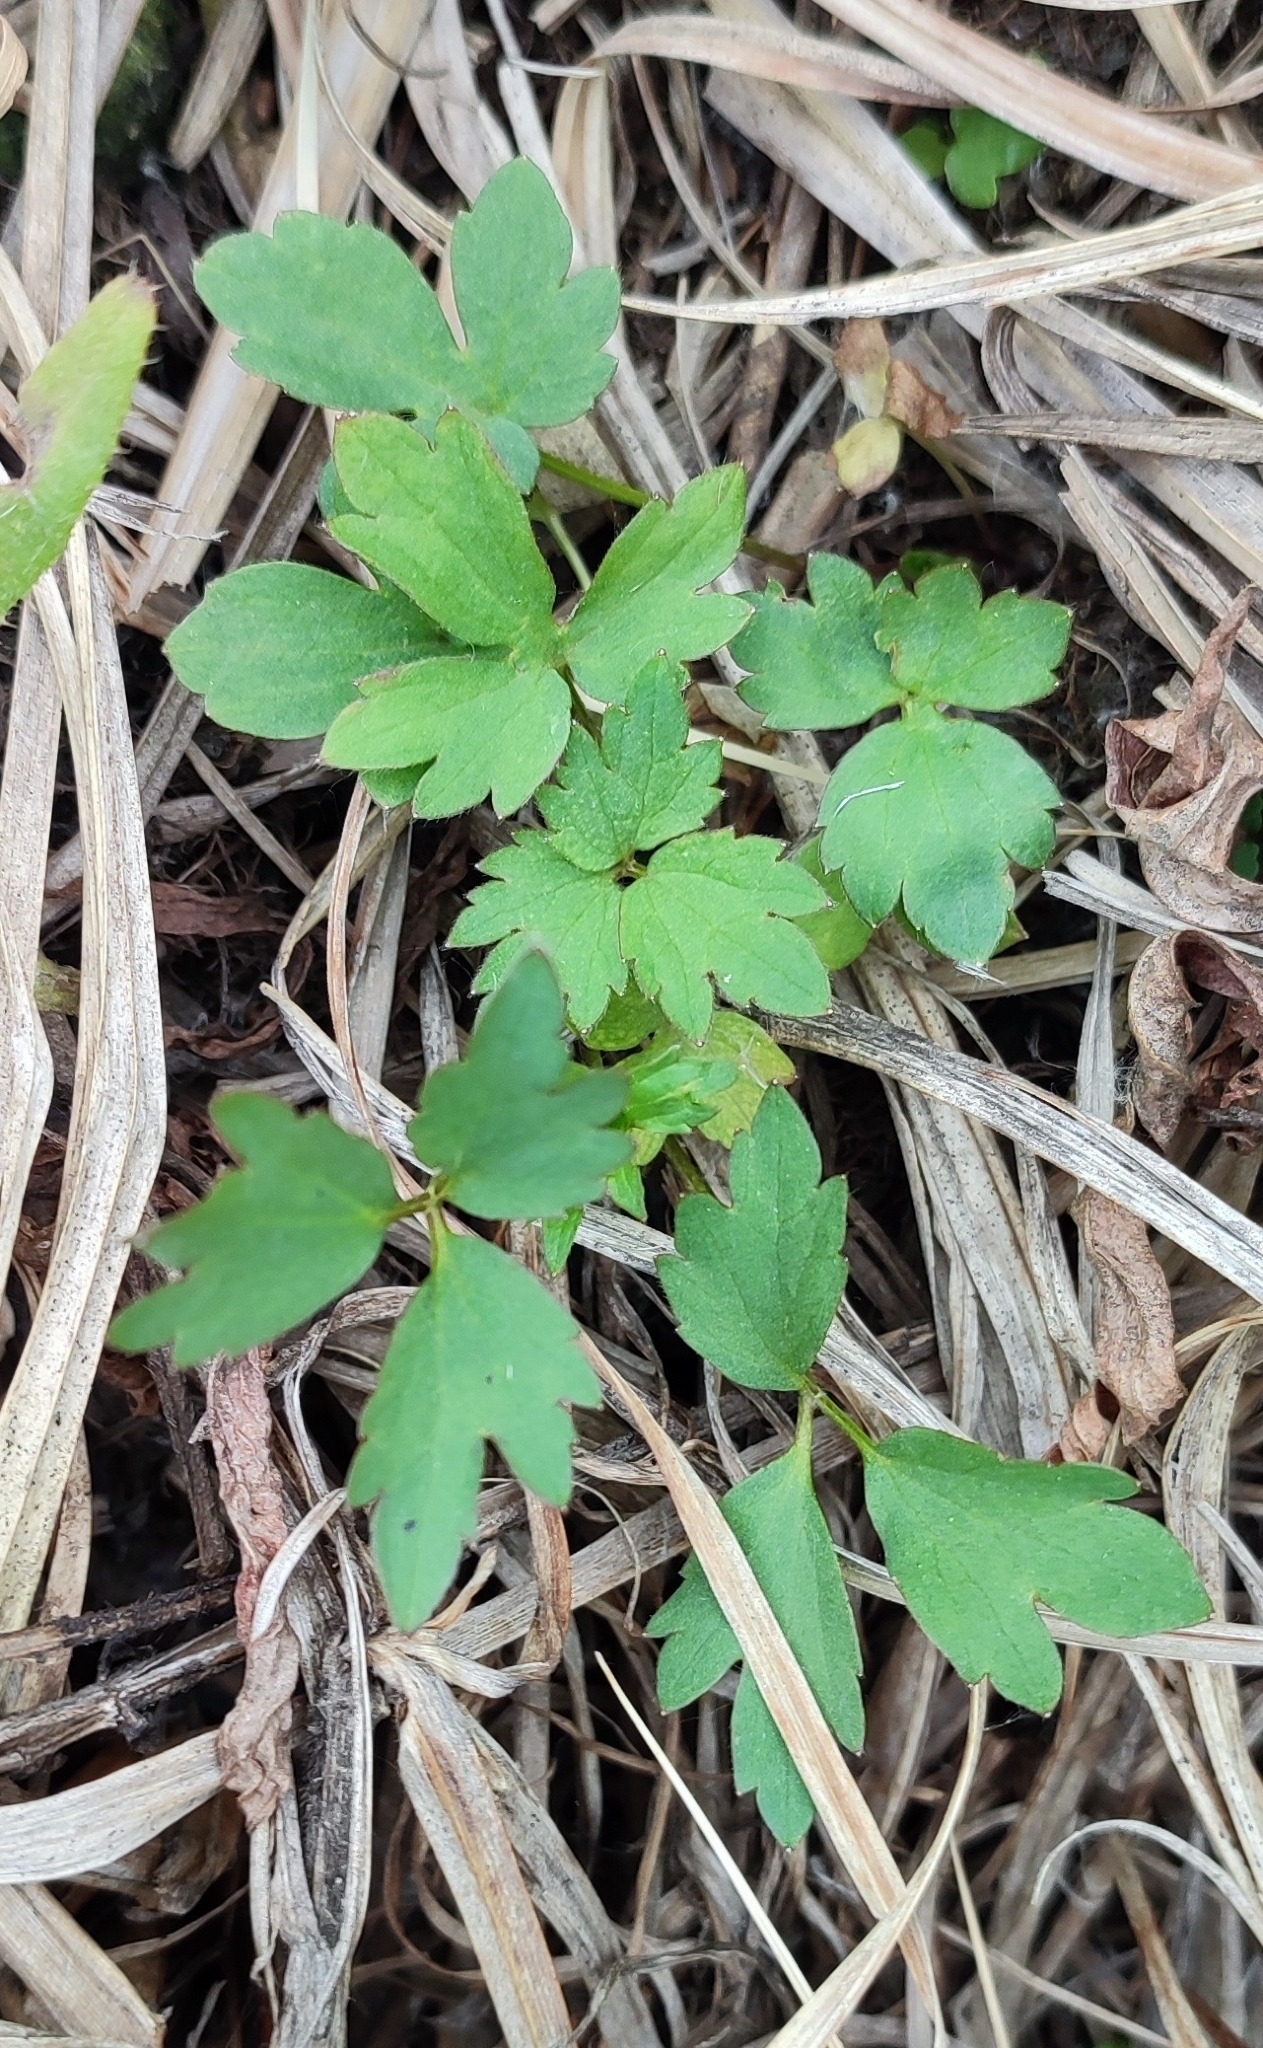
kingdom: Plantae
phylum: Tracheophyta
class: Magnoliopsida
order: Ranunculales
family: Ranunculaceae
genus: Ranunculus
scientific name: Ranunculus repens
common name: Creeping buttercup
